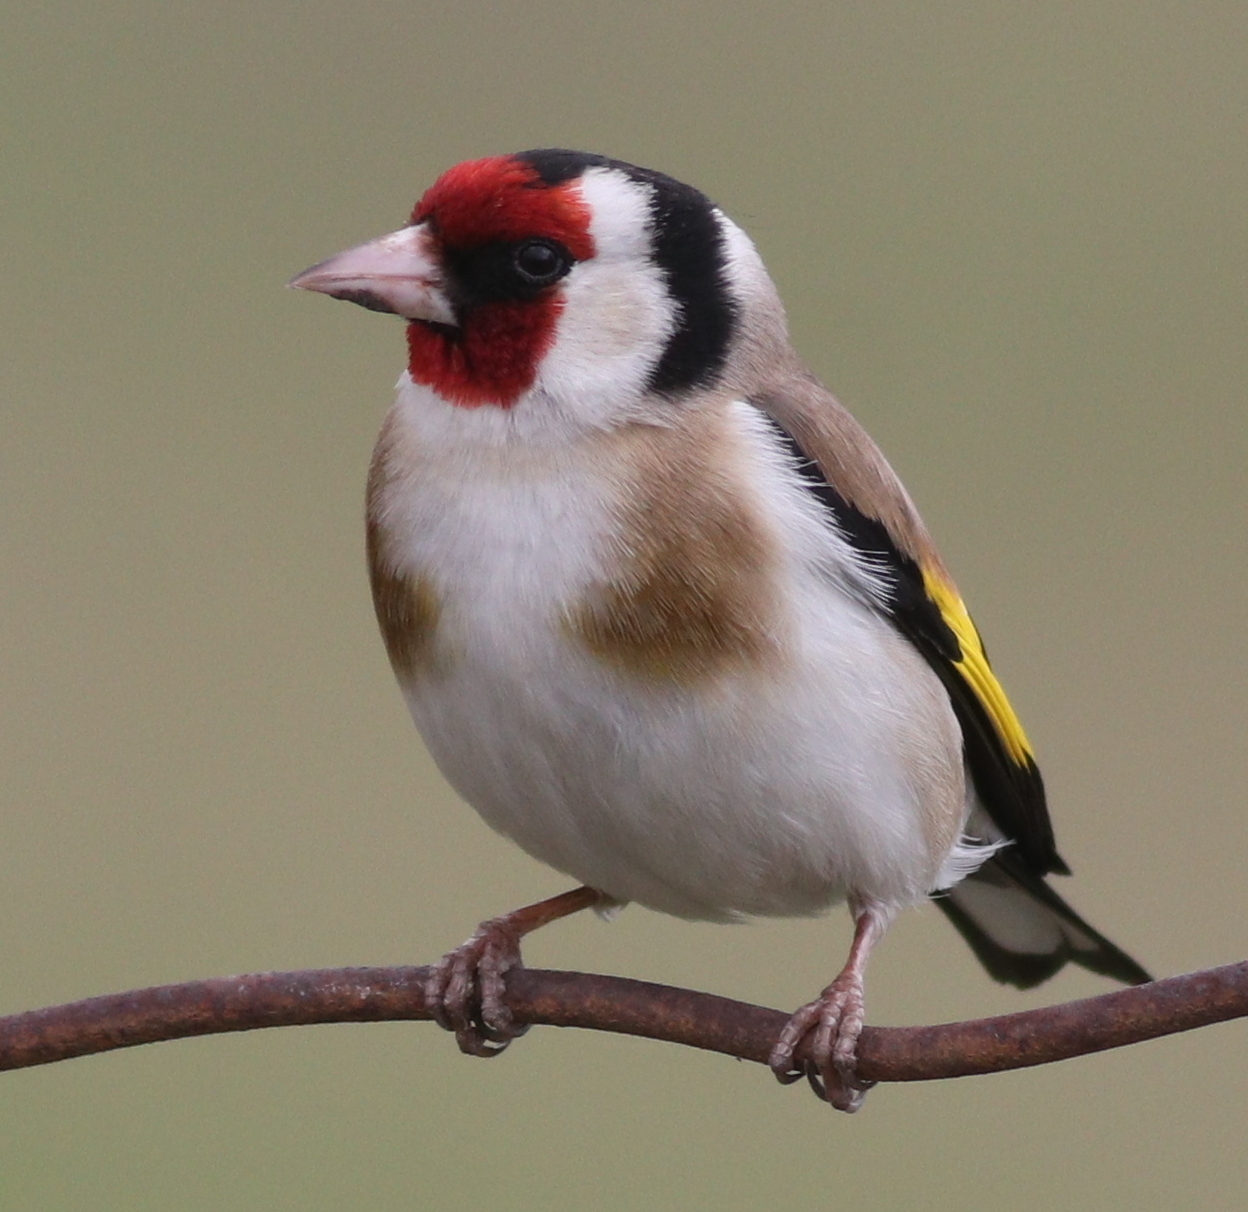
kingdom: Animalia
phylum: Chordata
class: Aves
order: Passeriformes
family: Fringillidae
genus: Carduelis
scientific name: Carduelis carduelis
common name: European goldfinch
